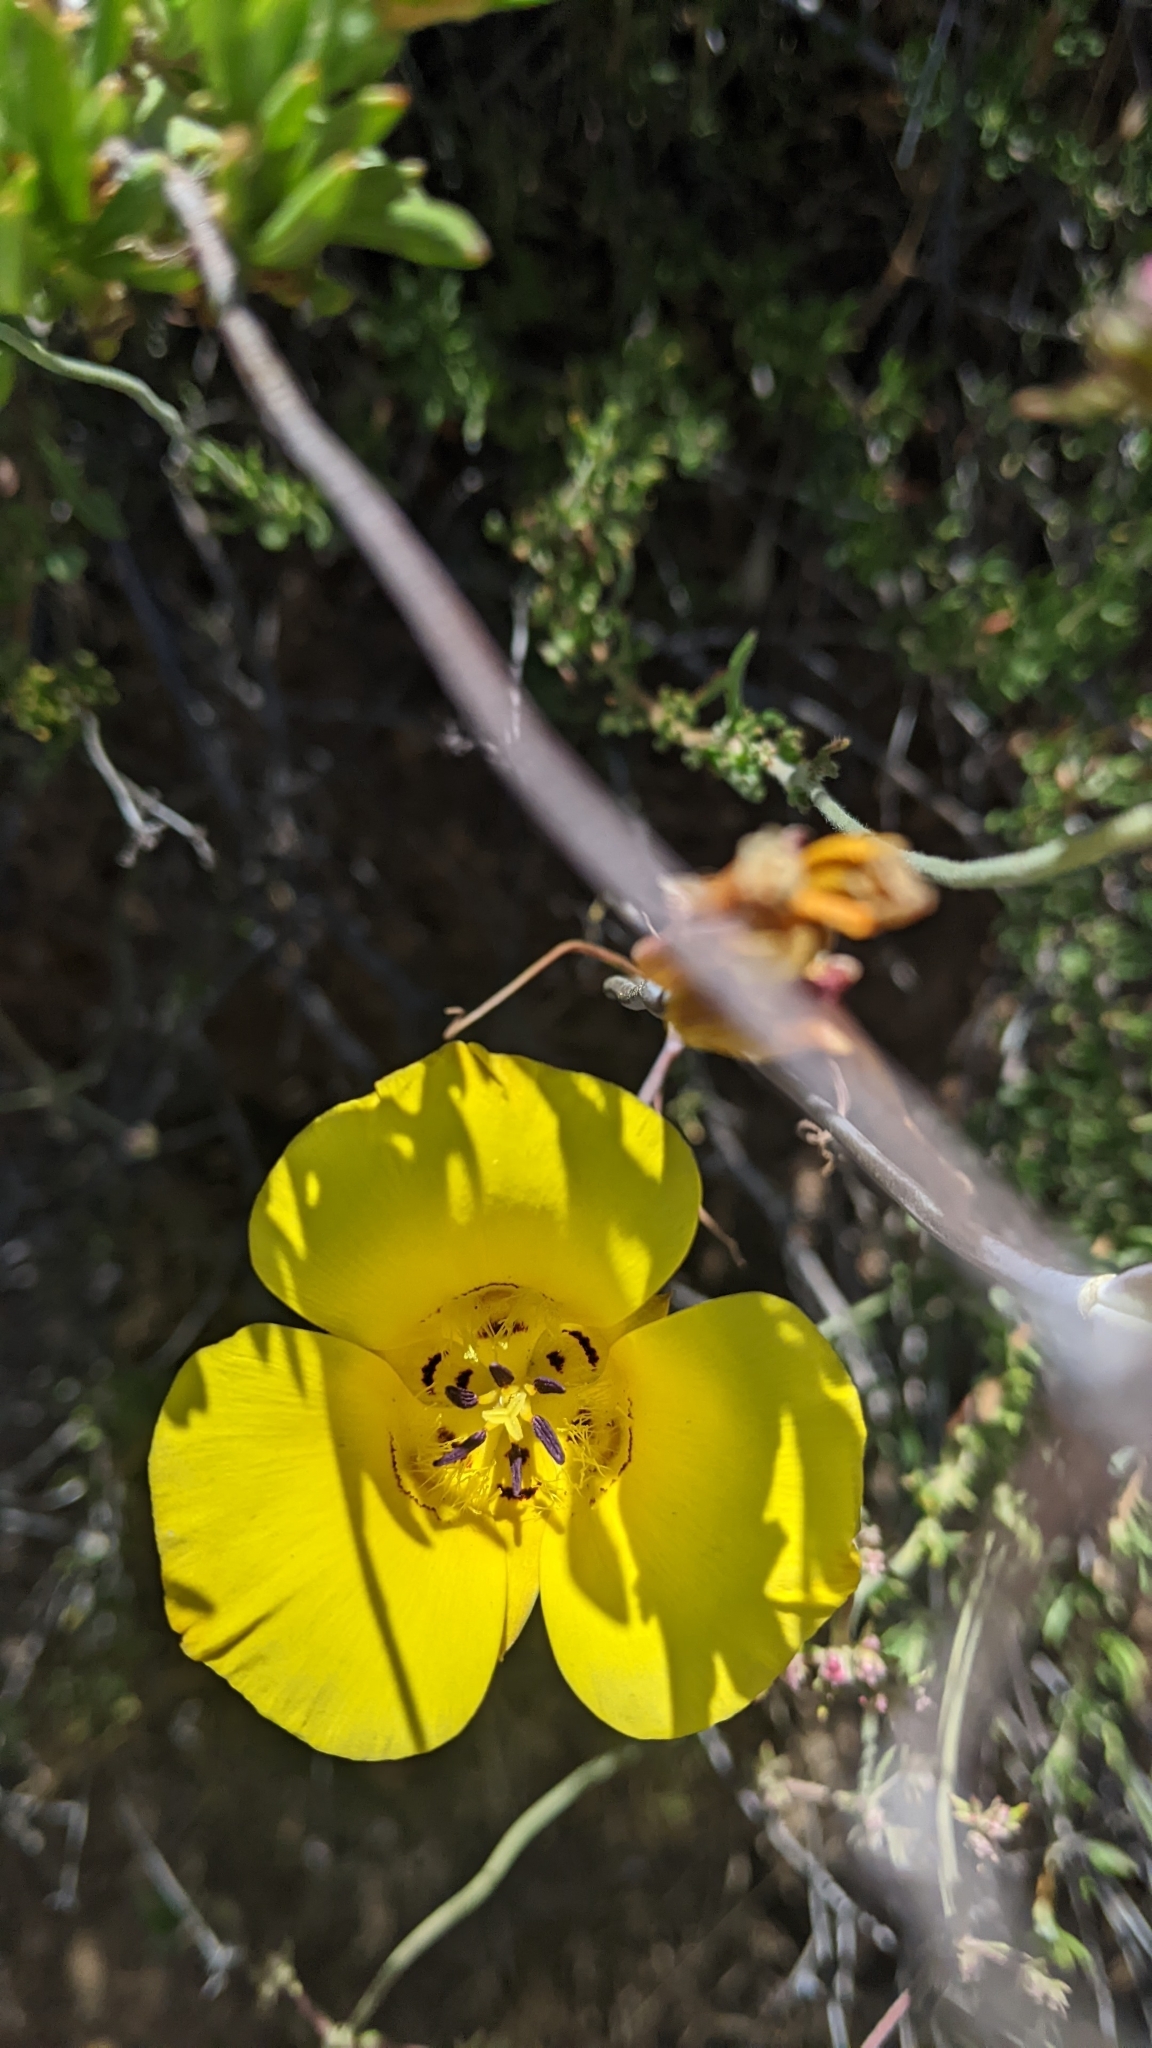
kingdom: Plantae
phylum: Tracheophyta
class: Liliopsida
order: Liliales
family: Liliaceae
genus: Calochortus
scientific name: Calochortus clavatus
